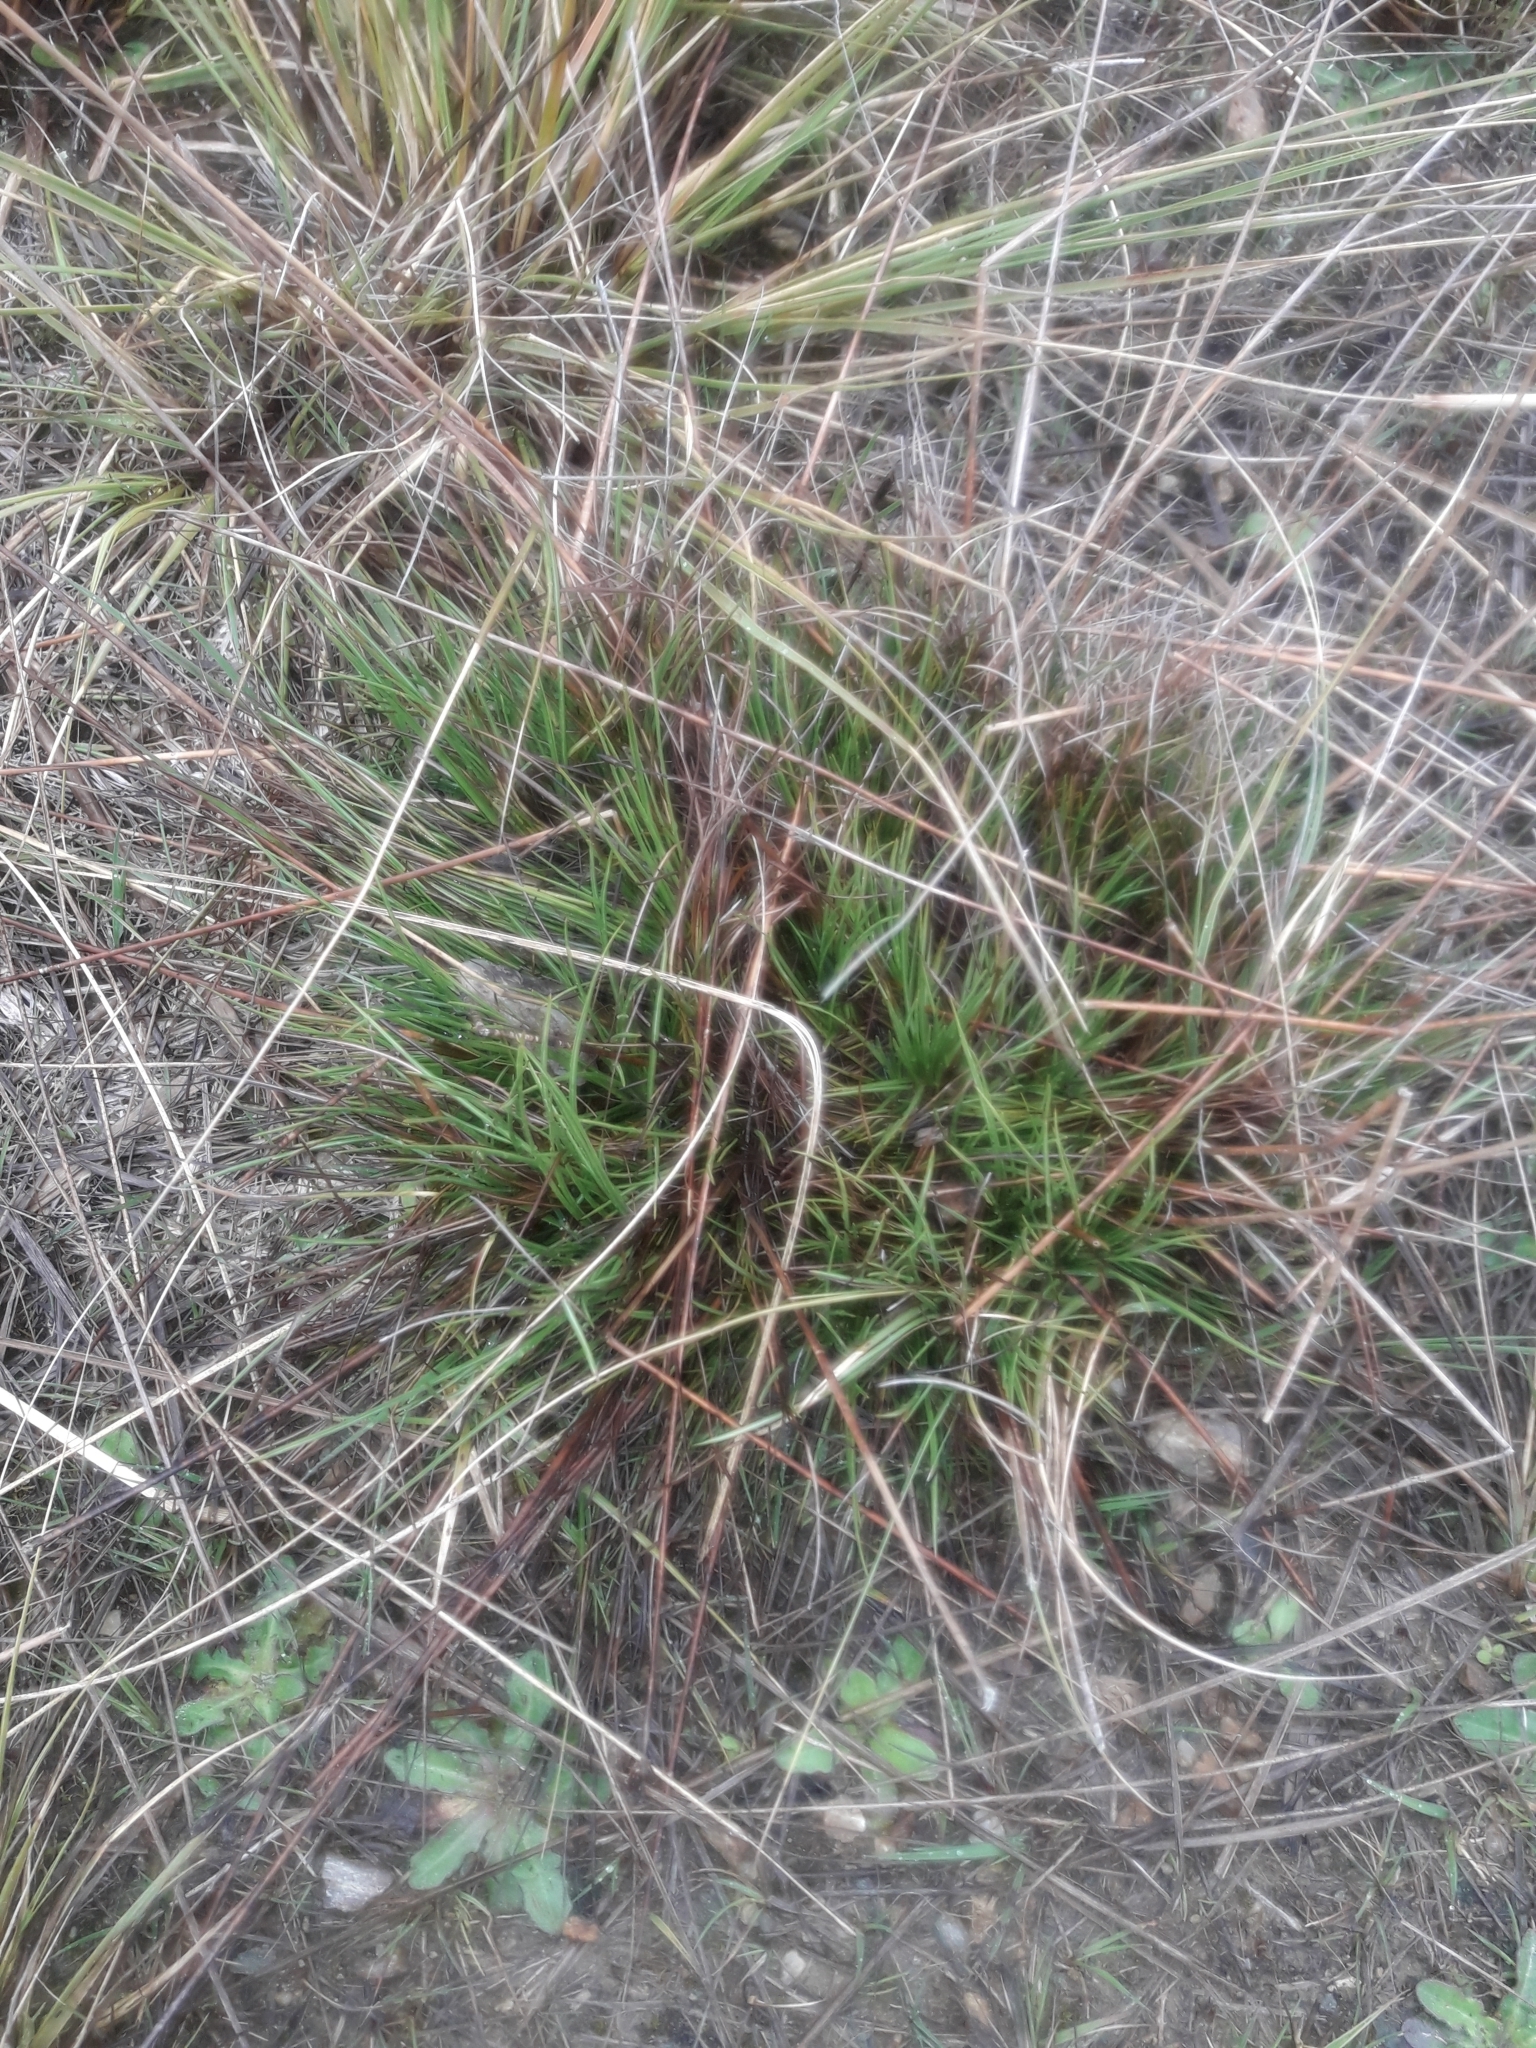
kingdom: Plantae
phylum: Tracheophyta
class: Liliopsida
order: Poales
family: Juncaceae
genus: Juncus
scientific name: Juncus squarrosus
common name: Heath rush
